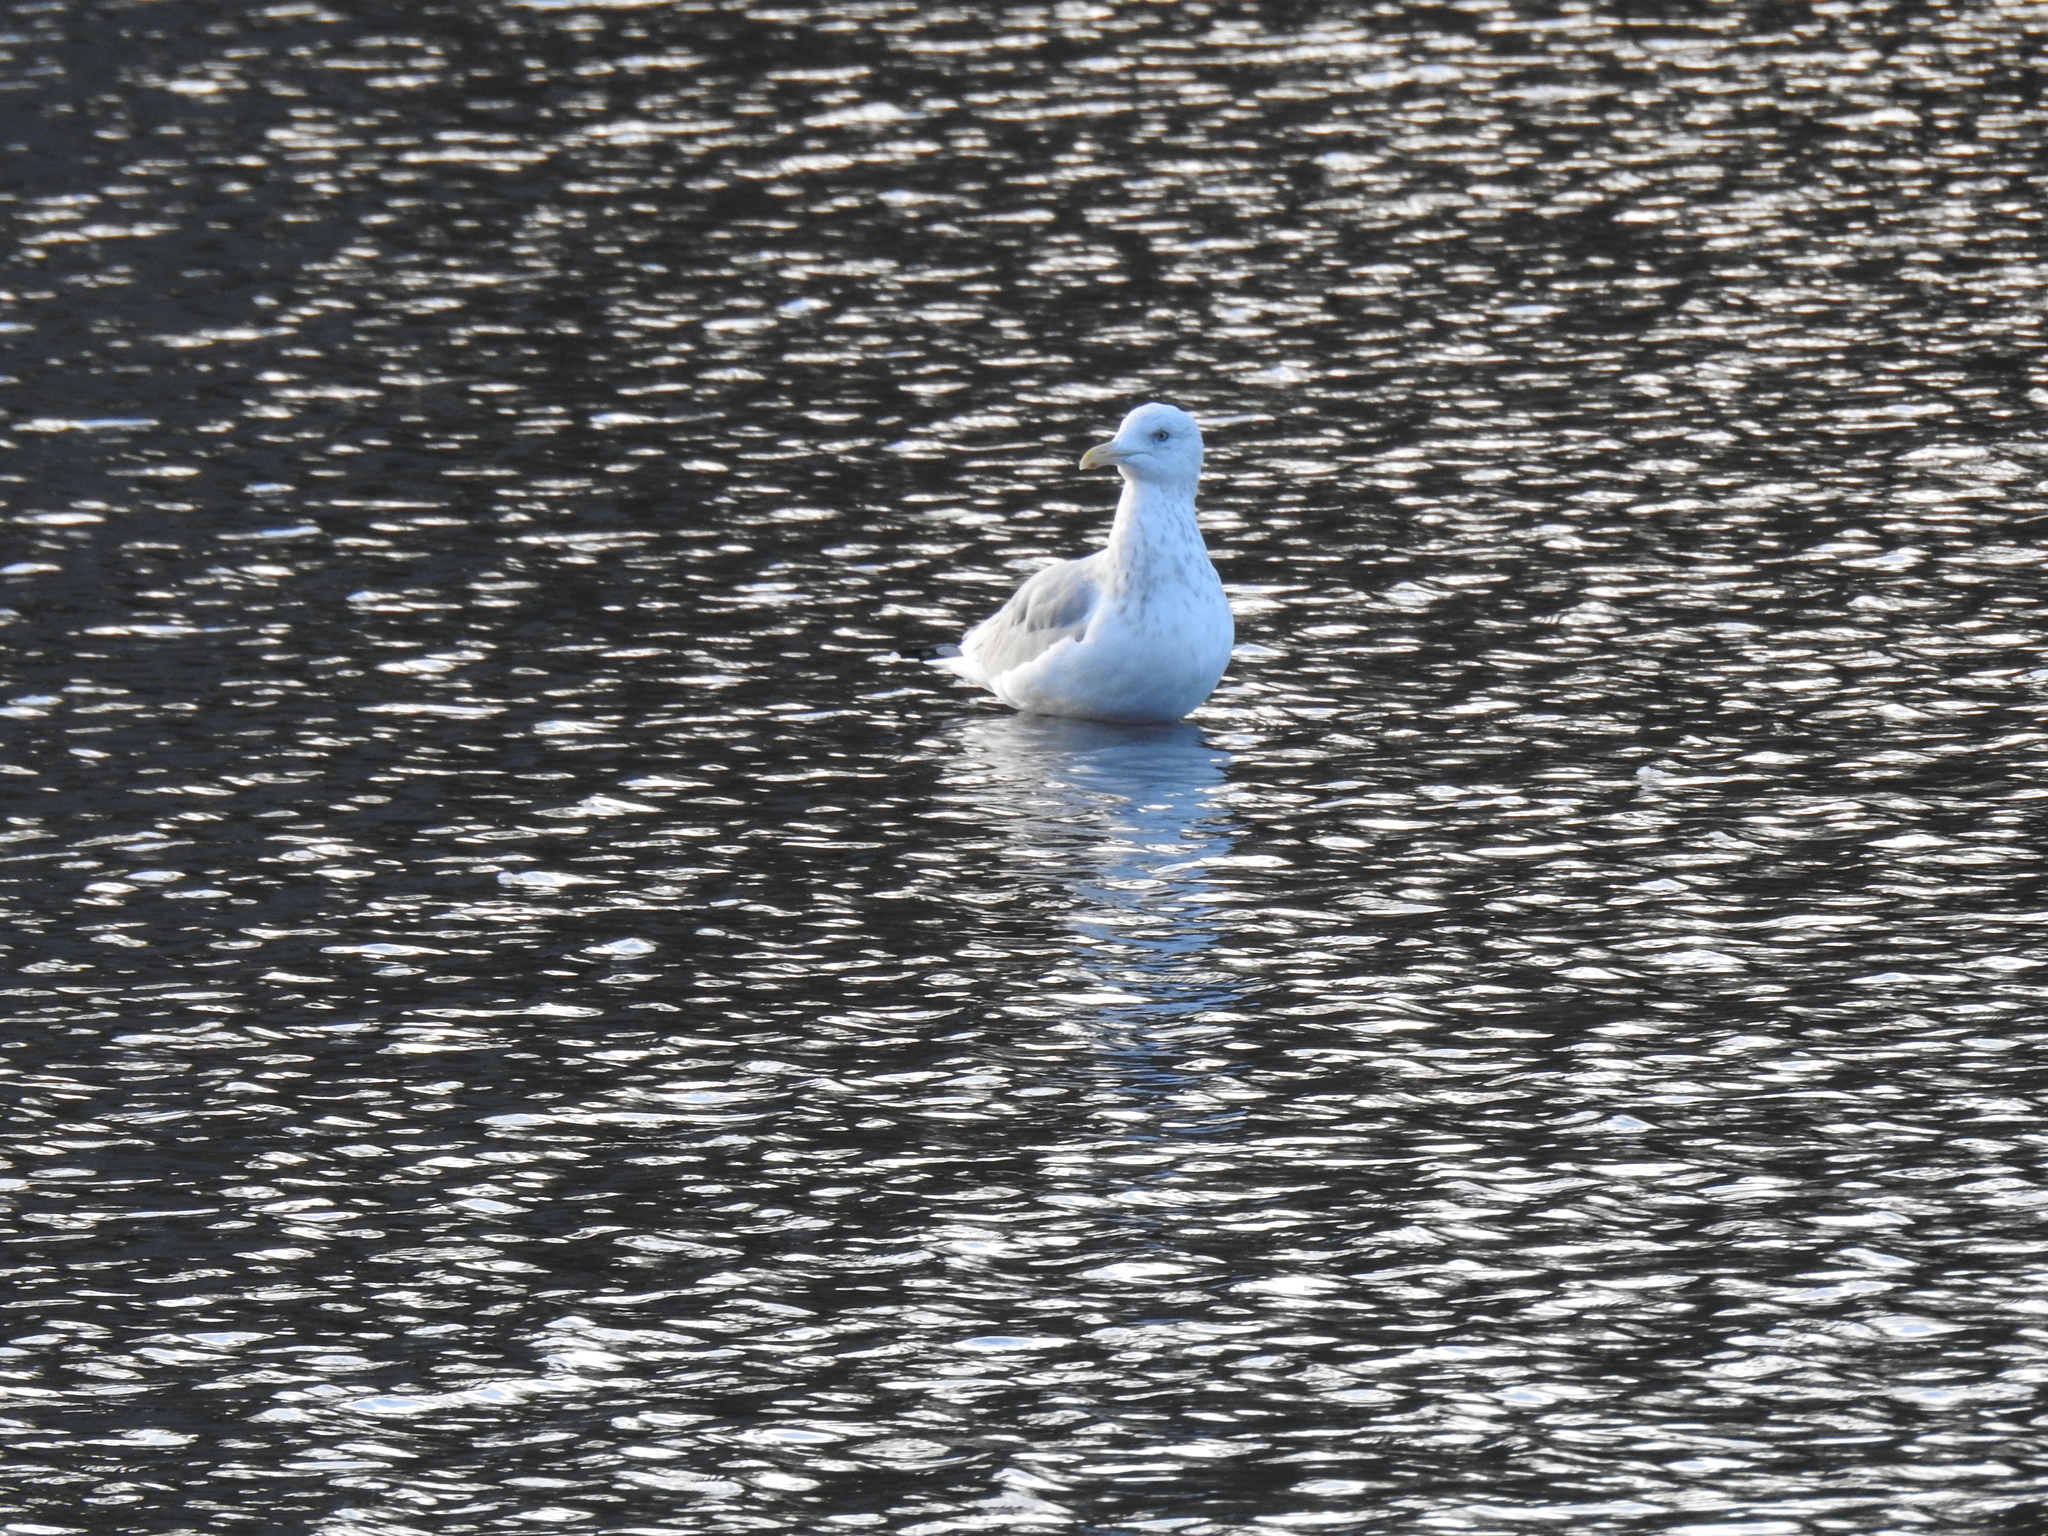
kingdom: Animalia
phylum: Chordata
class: Aves
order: Charadriiformes
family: Laridae
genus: Larus
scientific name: Larus argentatus
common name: Herring gull
